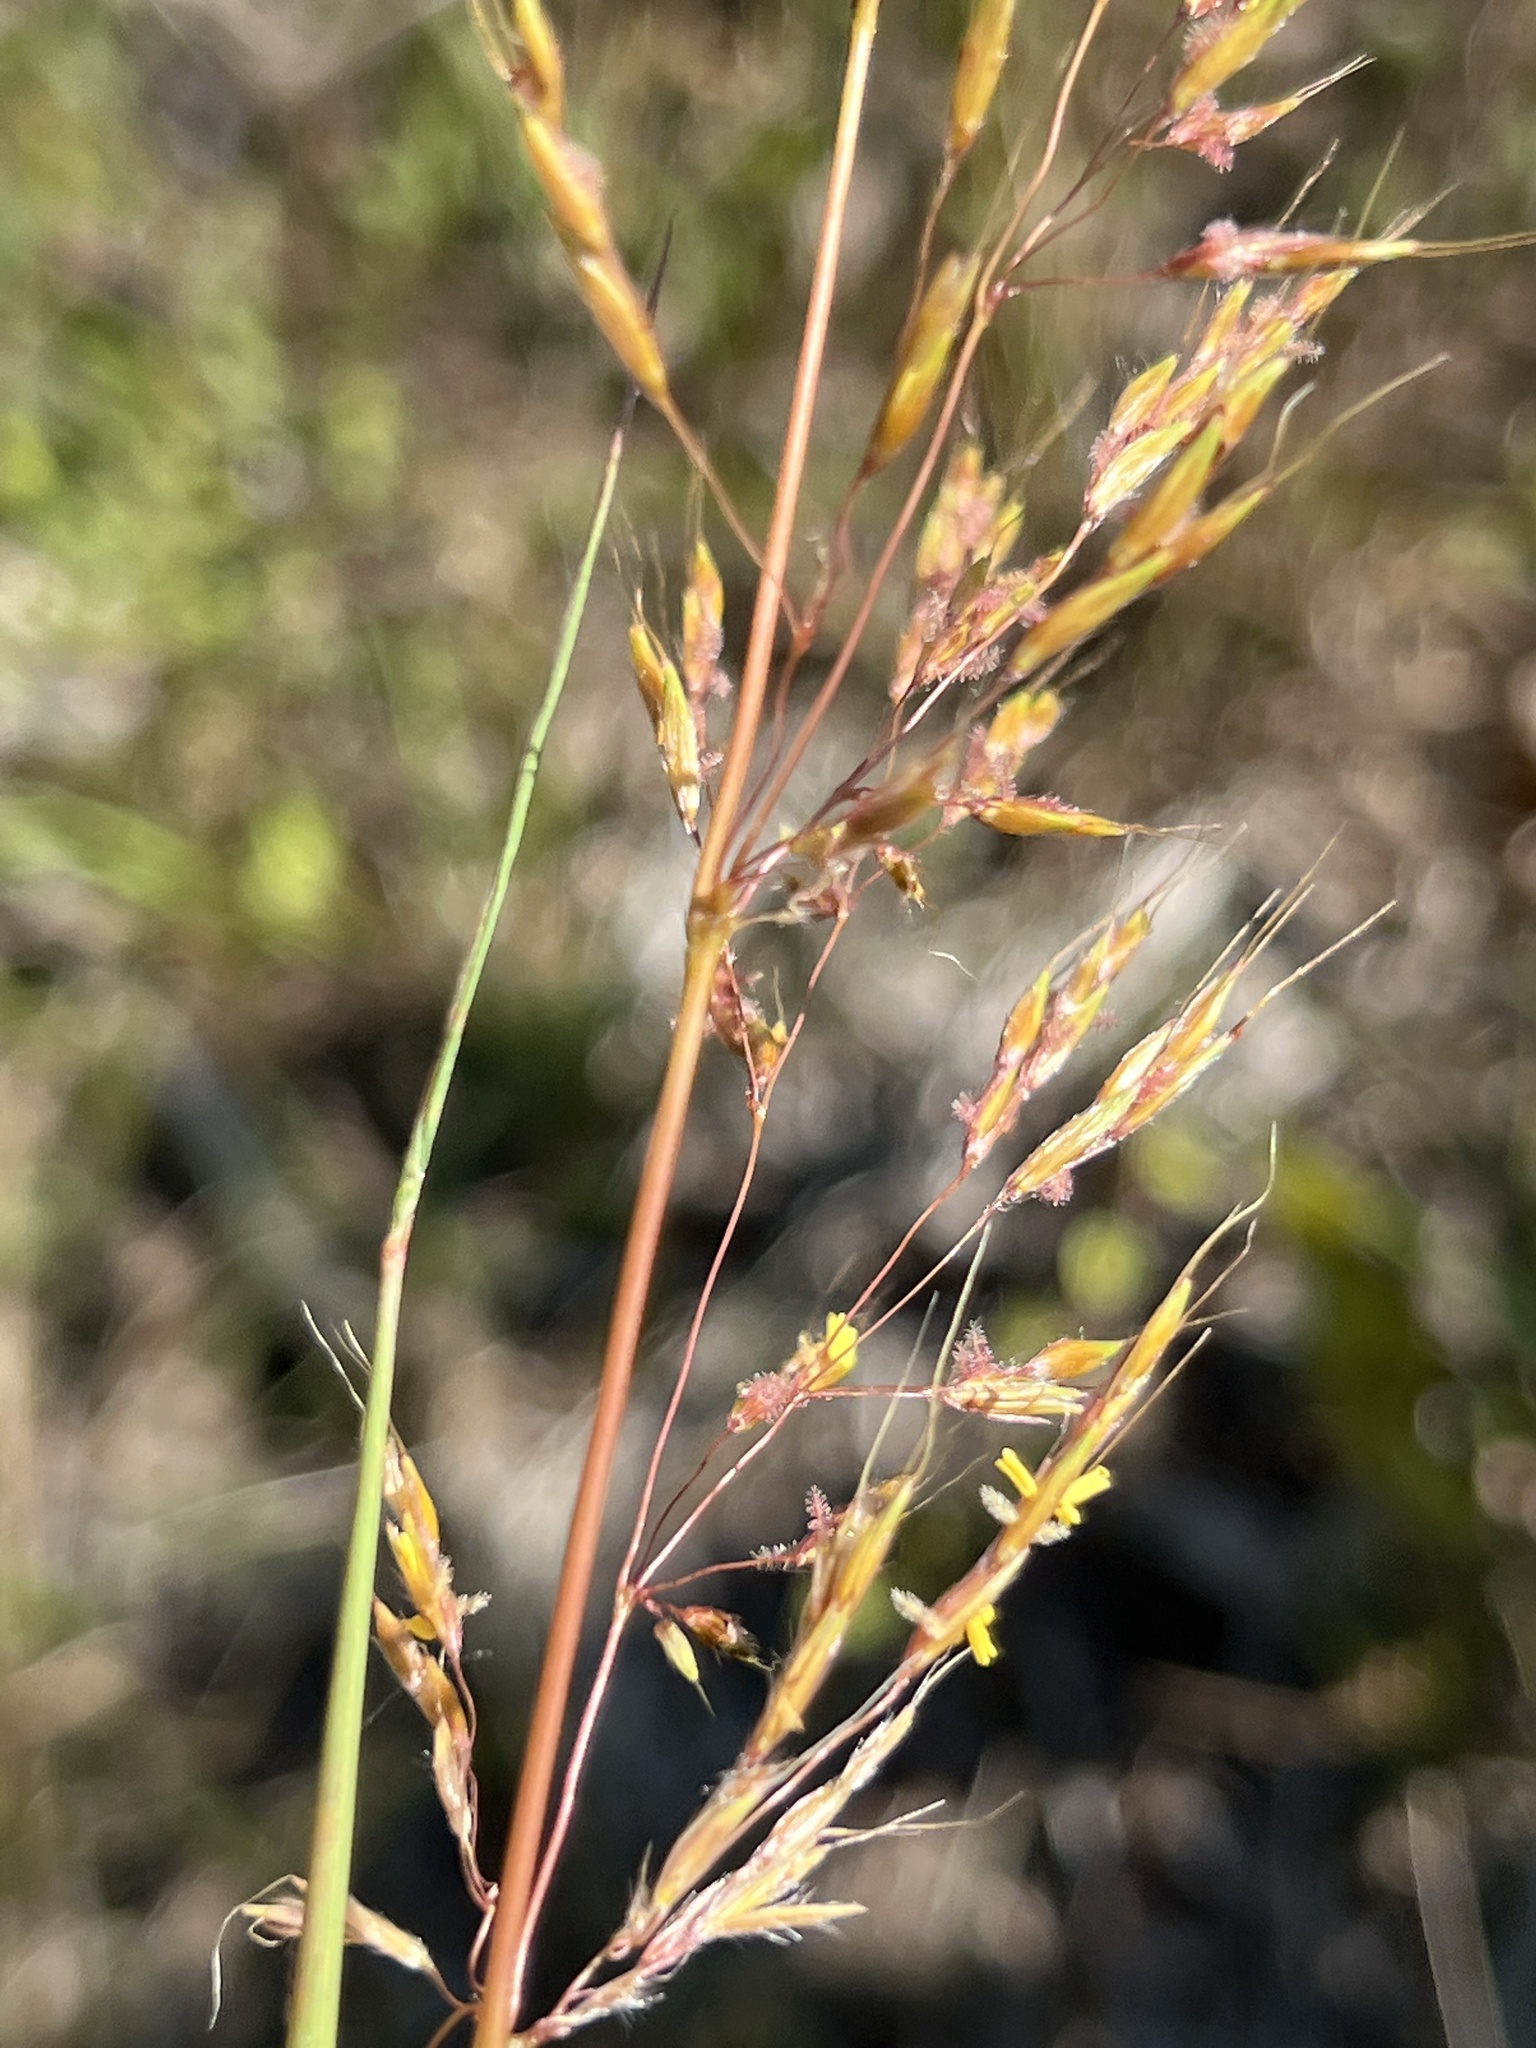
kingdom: Plantae
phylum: Tracheophyta
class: Liliopsida
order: Poales
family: Poaceae
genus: Sorghastrum
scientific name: Sorghastrum nutans
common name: Indian grass
